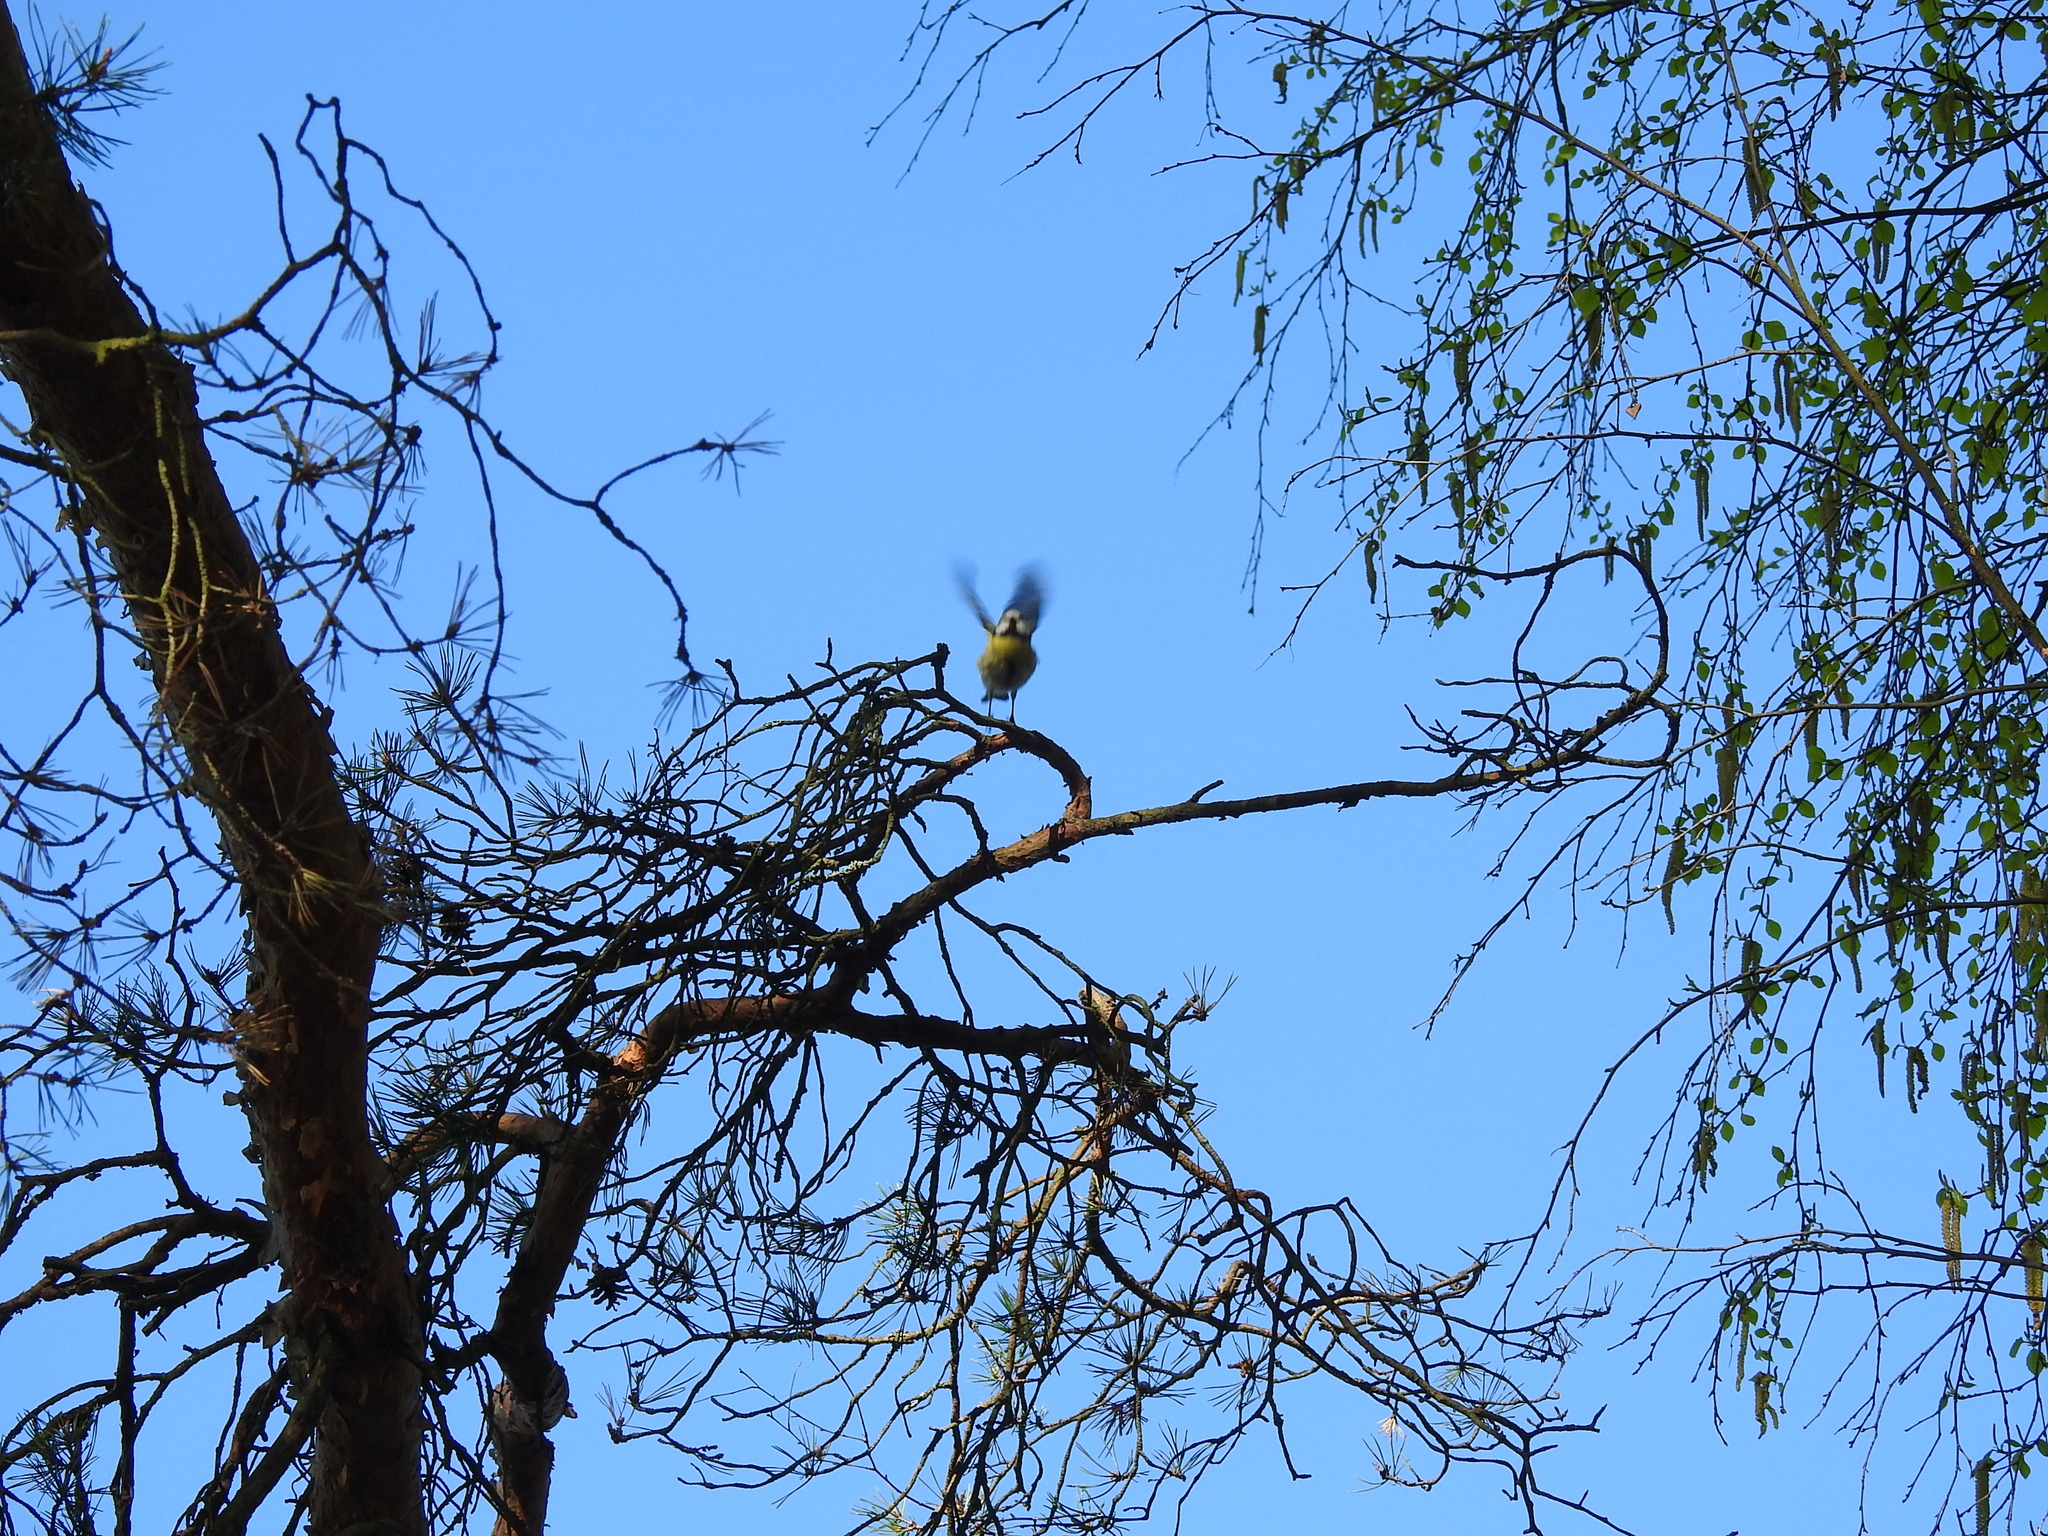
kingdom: Animalia
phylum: Chordata
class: Aves
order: Passeriformes
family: Paridae
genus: Cyanistes
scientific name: Cyanistes caeruleus
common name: Eurasian blue tit
